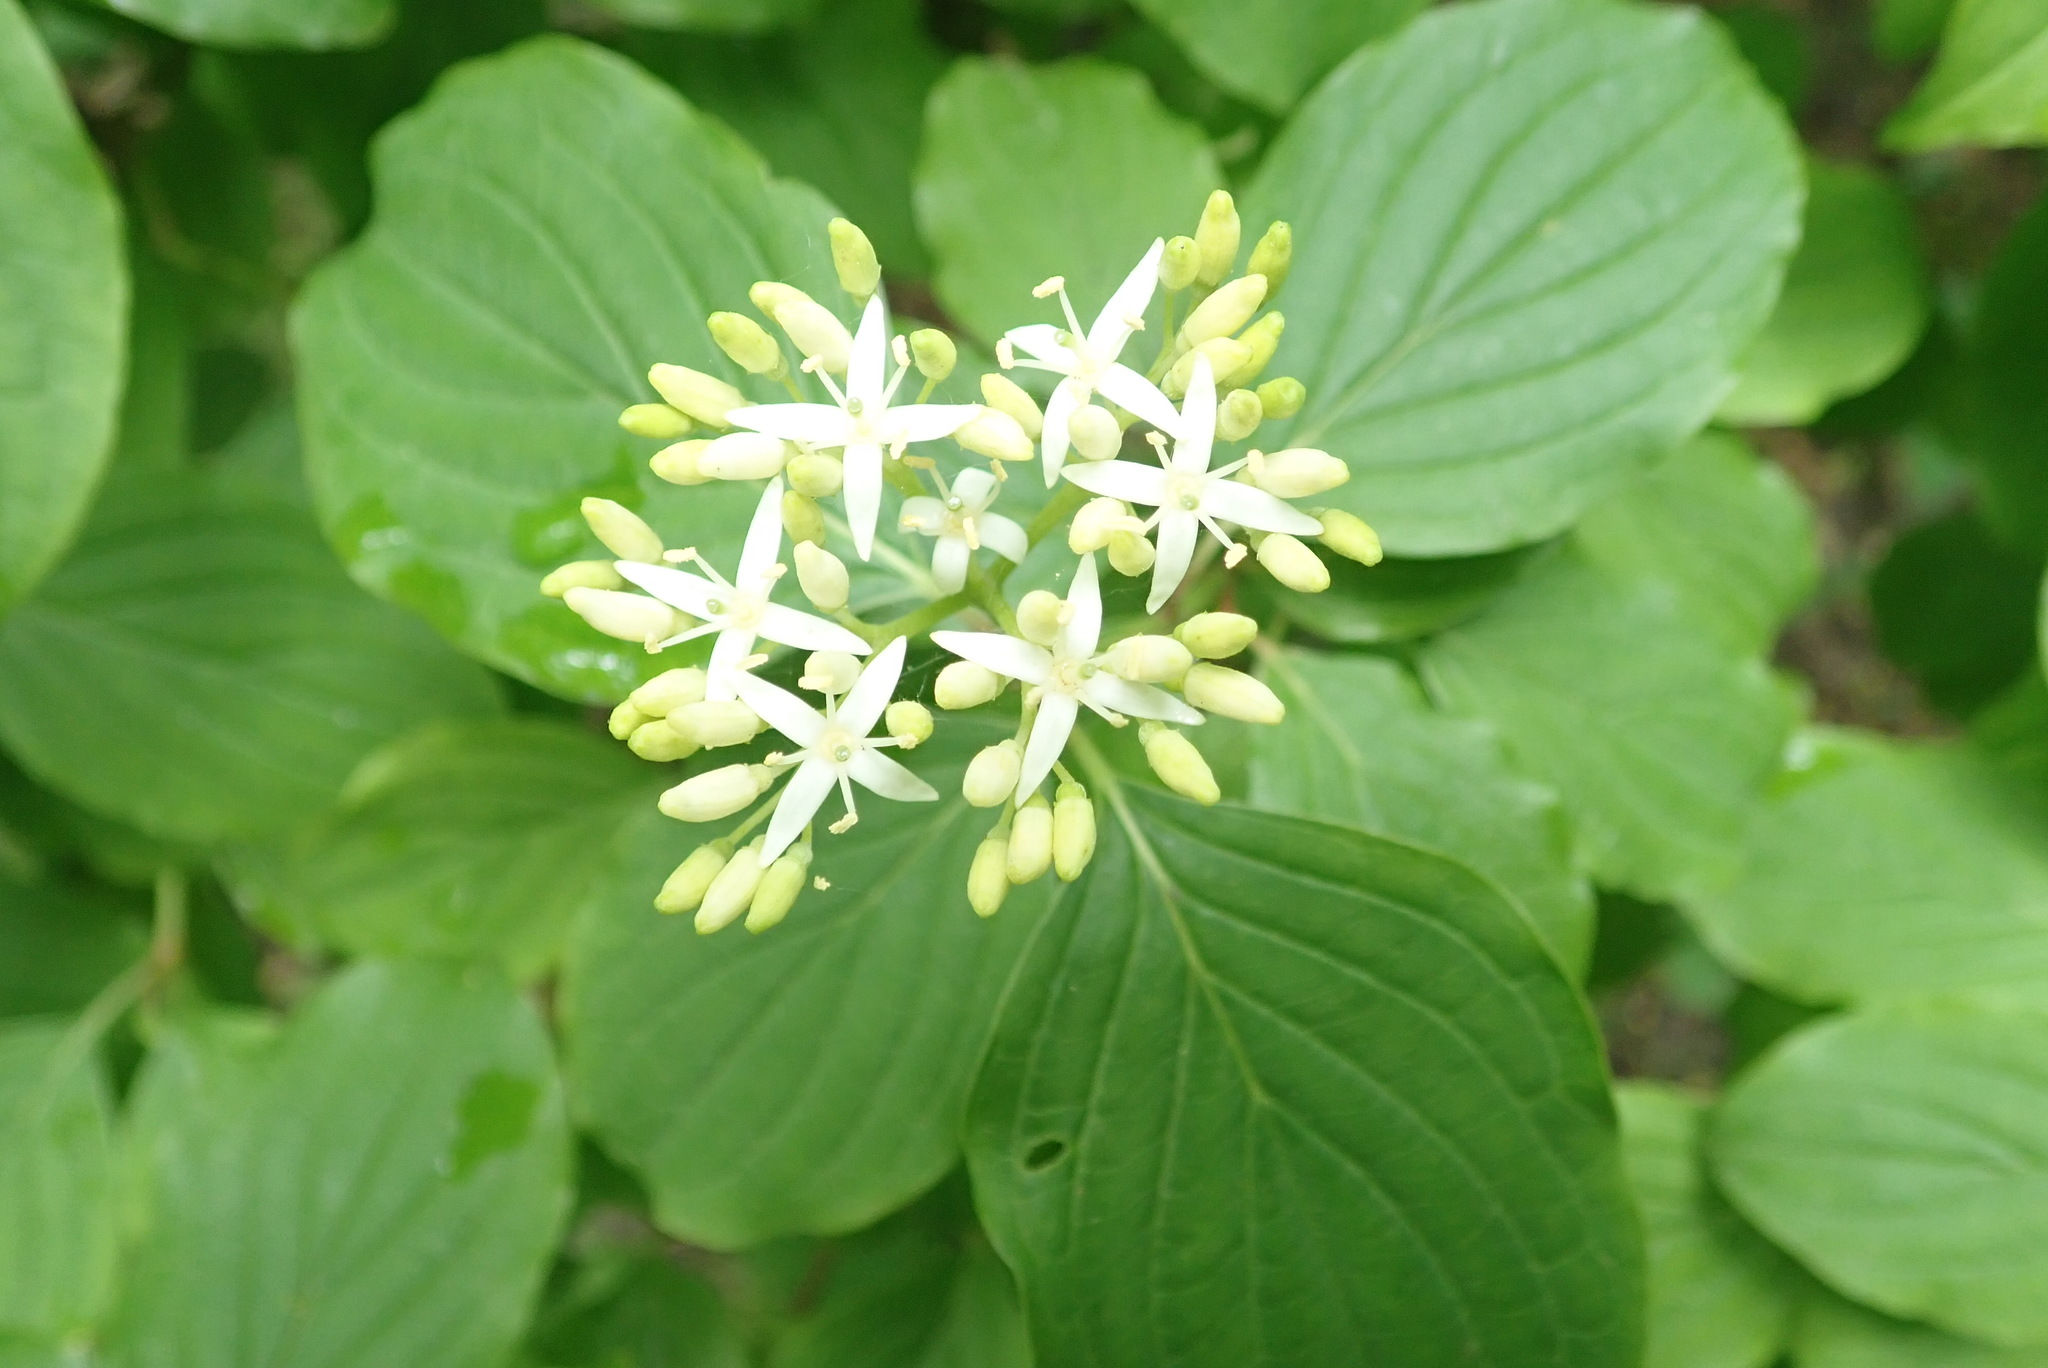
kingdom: Plantae
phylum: Tracheophyta
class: Magnoliopsida
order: Cornales
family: Cornaceae
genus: Cornus
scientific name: Cornus sanguinea
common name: Dogwood
